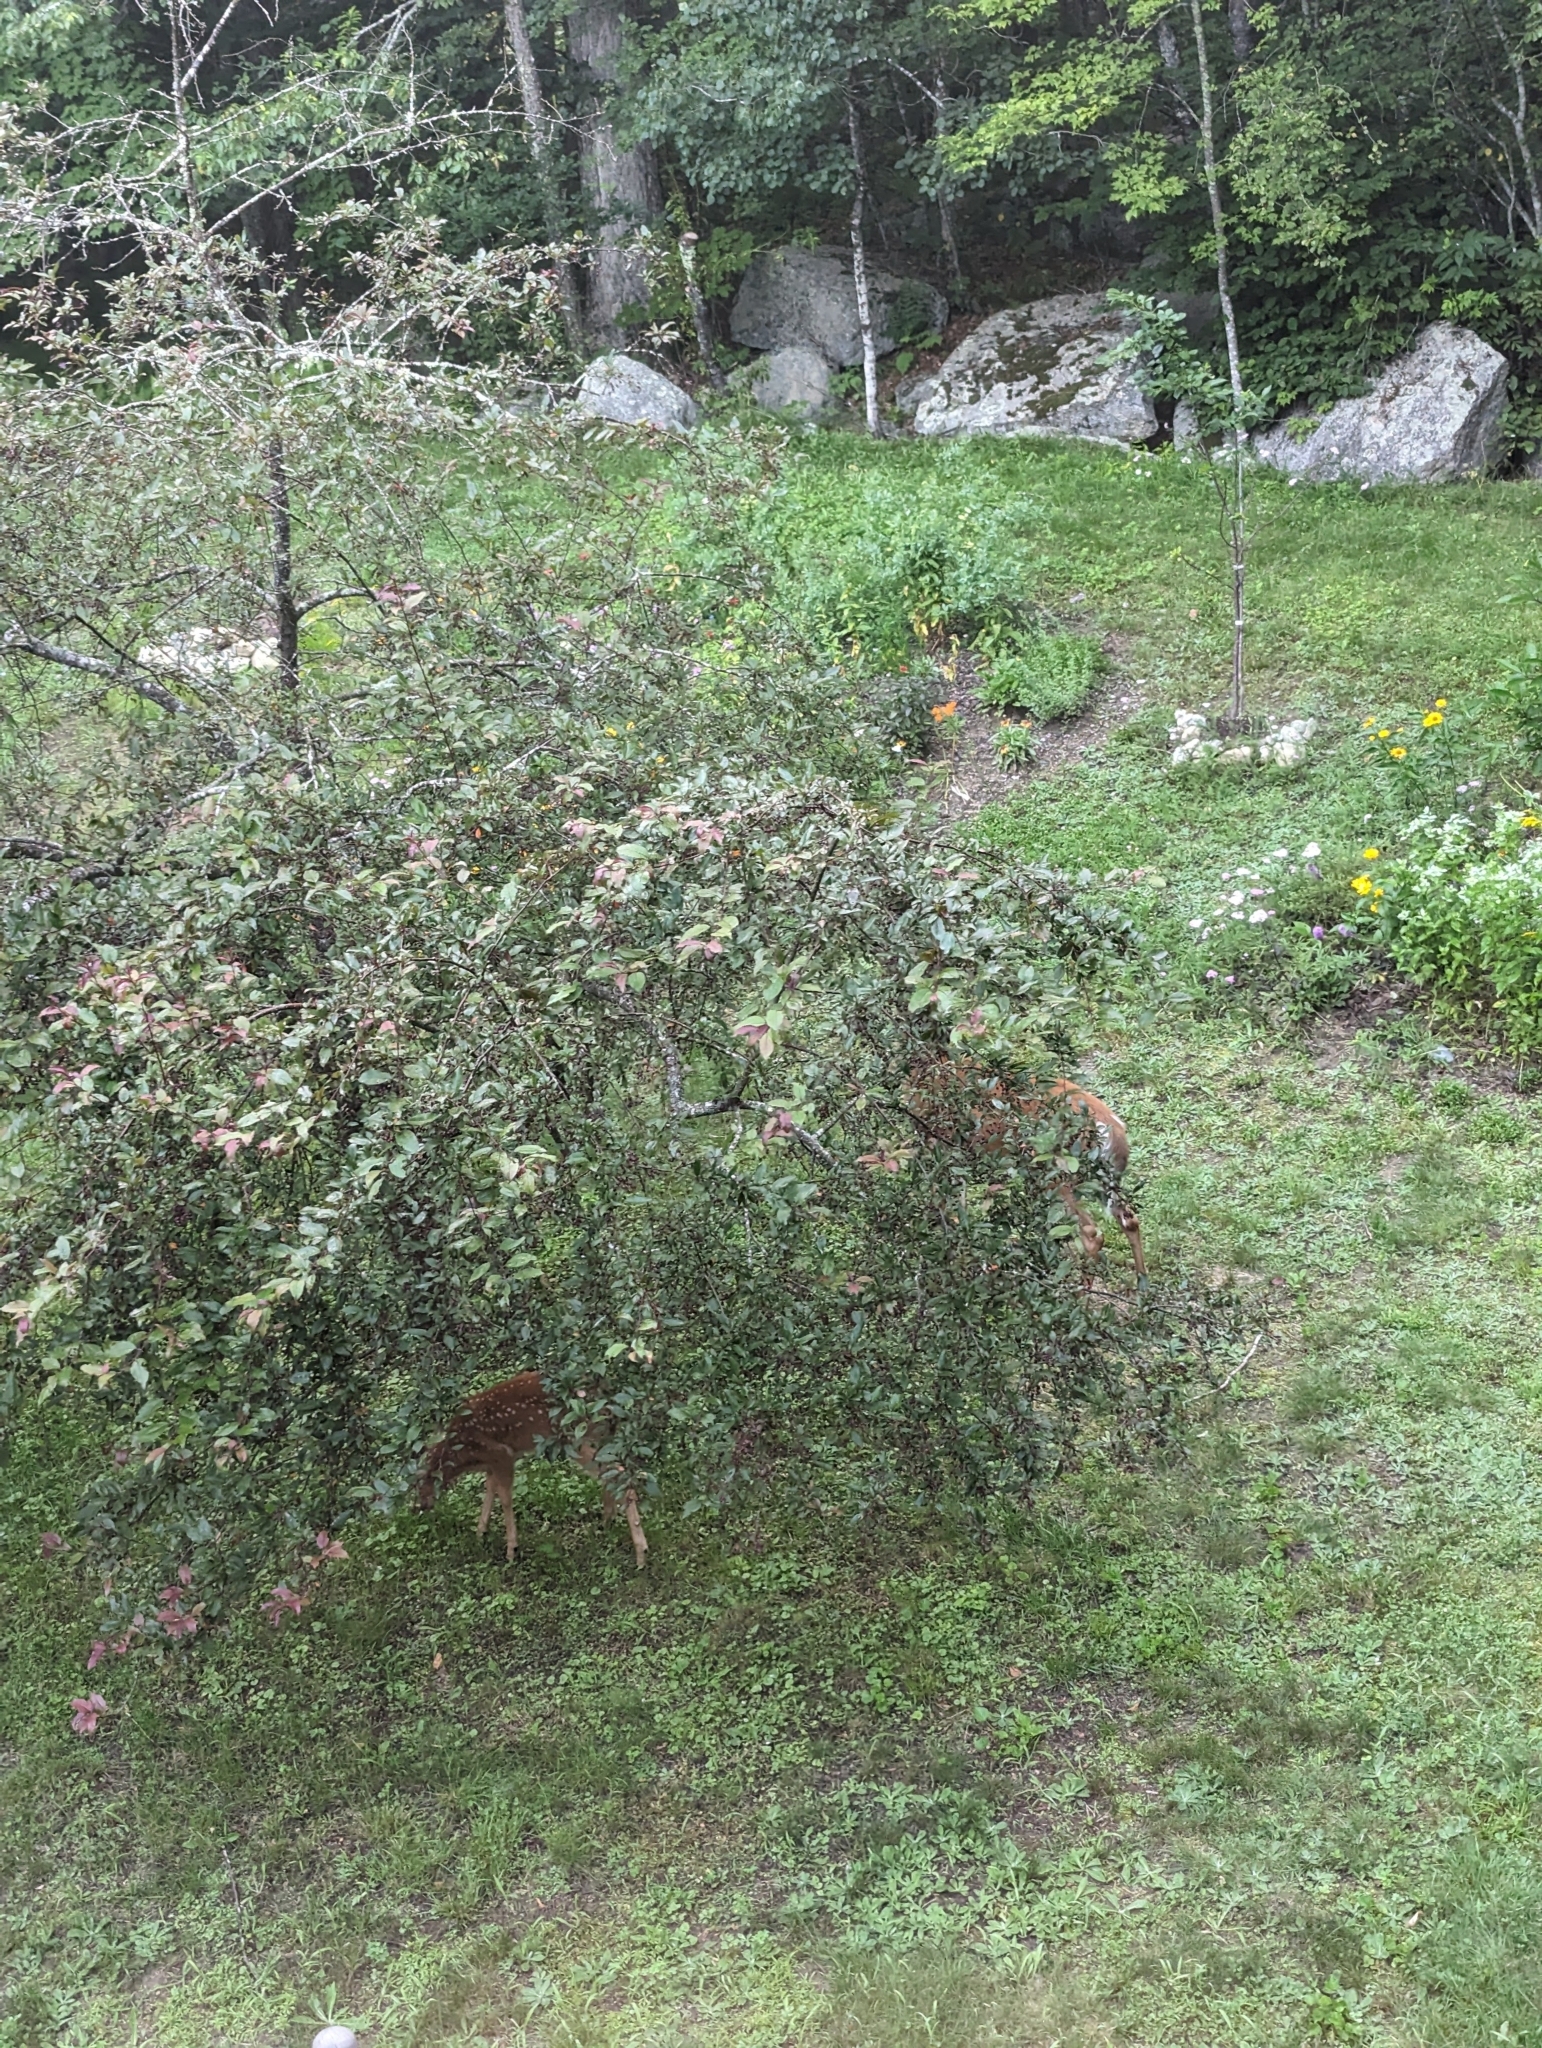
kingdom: Animalia
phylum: Chordata
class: Mammalia
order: Artiodactyla
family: Cervidae
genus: Odocoileus
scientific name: Odocoileus virginianus
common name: White-tailed deer
